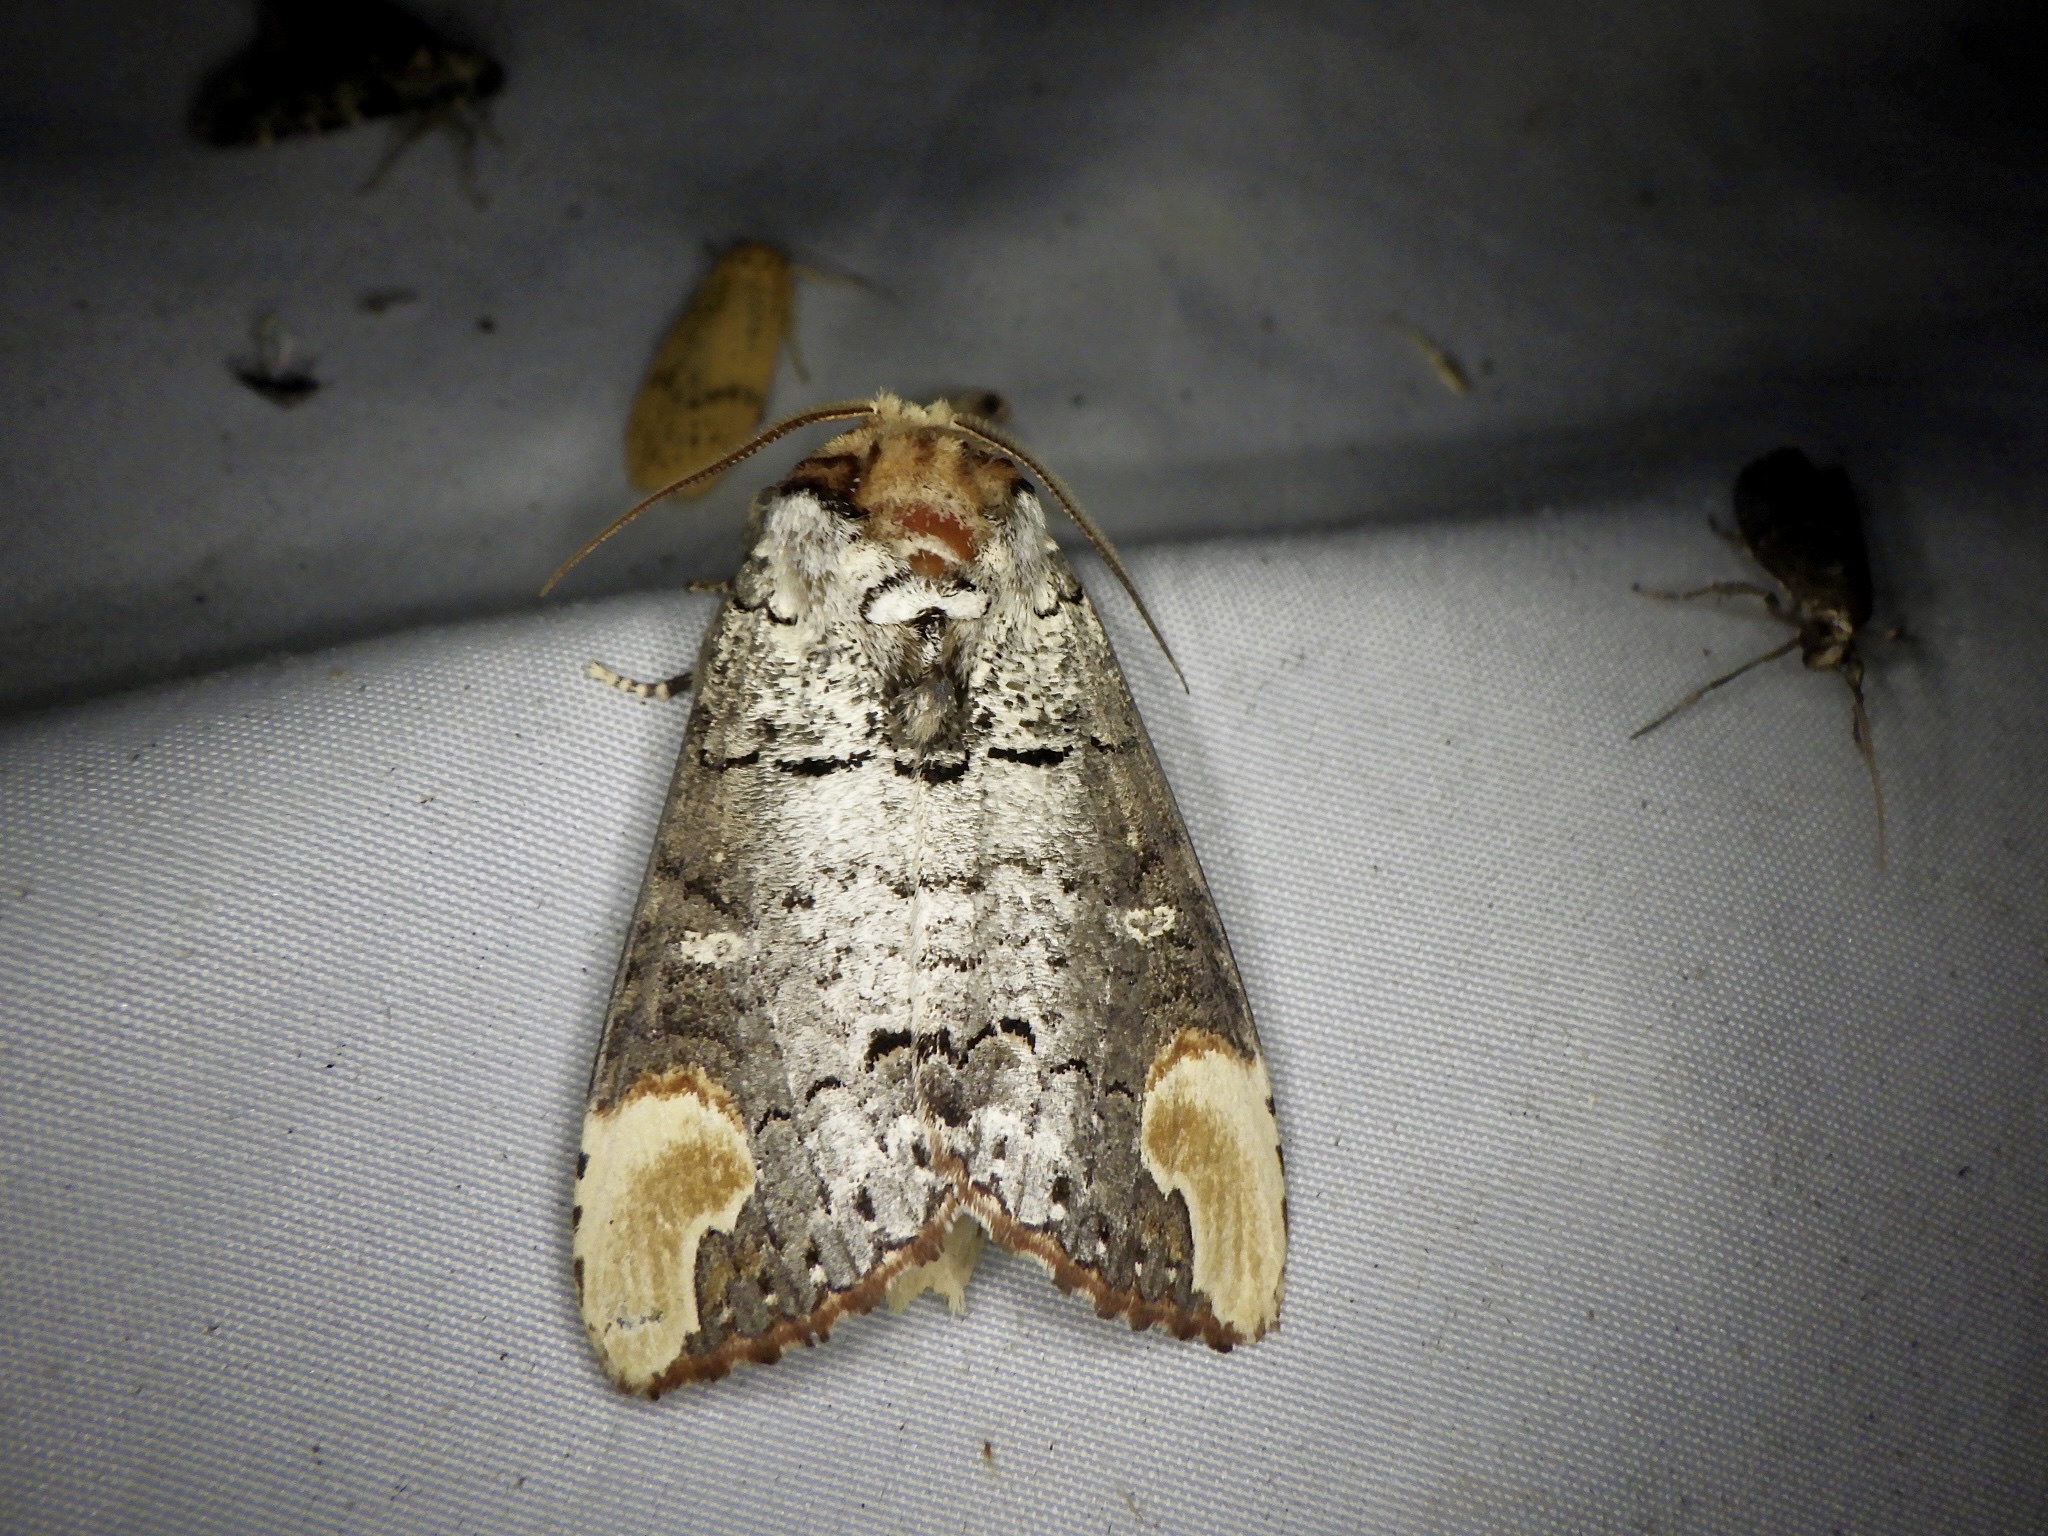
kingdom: Animalia
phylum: Arthropoda
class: Insecta
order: Lepidoptera
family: Notodontidae
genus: Phalera
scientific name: Phalera assimilis
